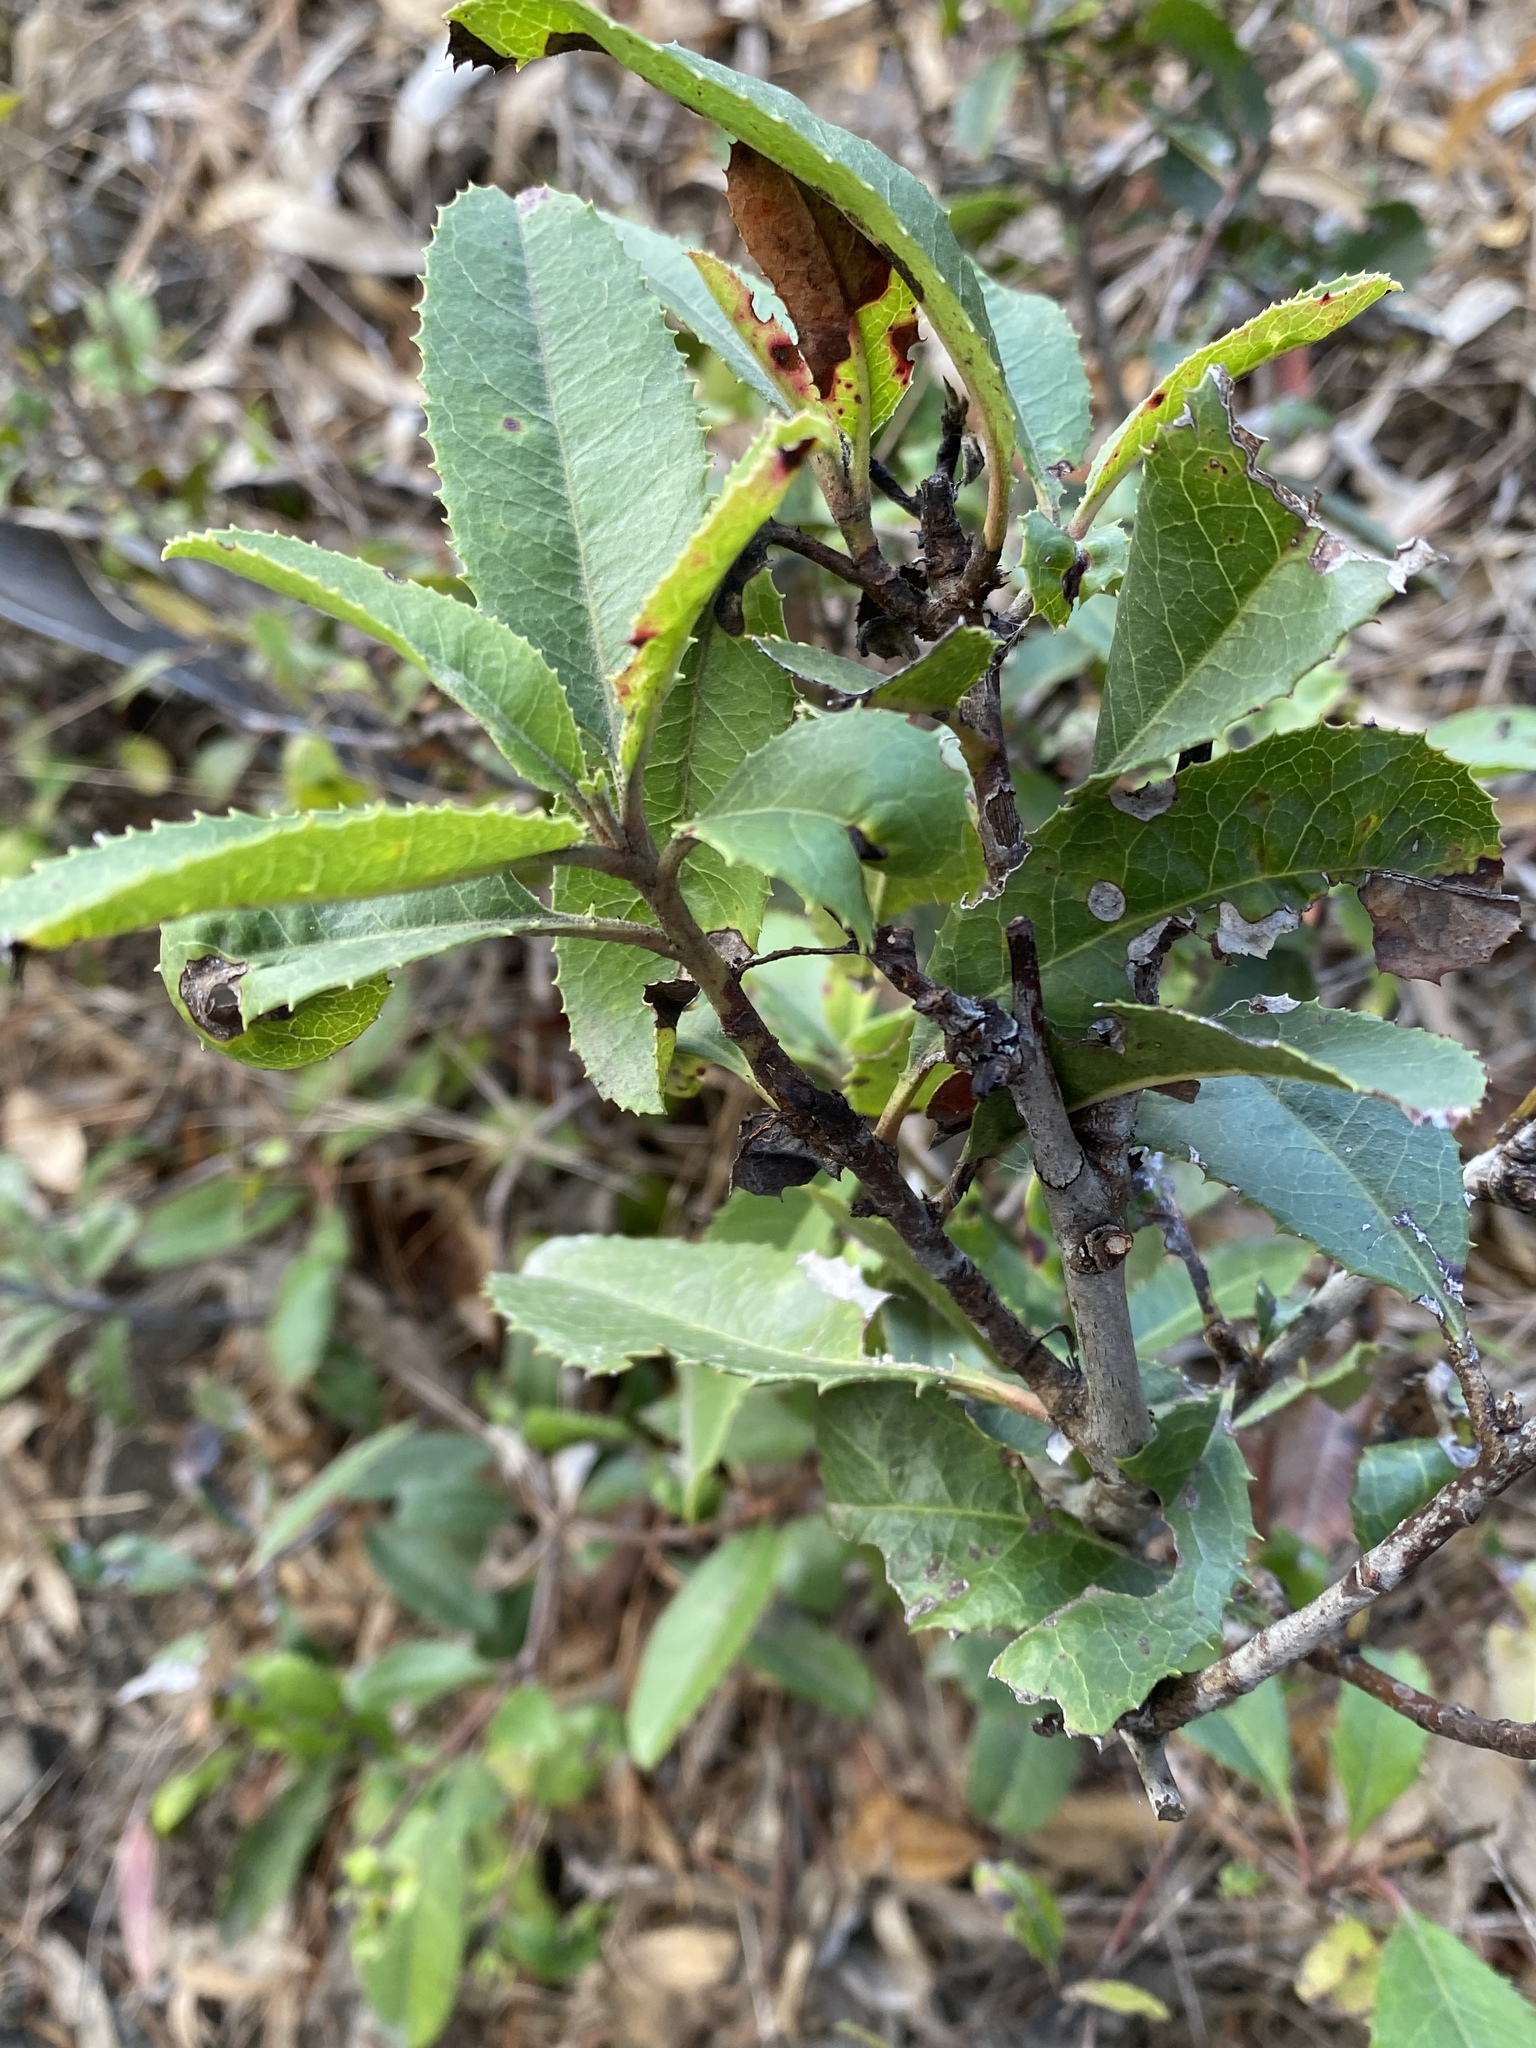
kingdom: Plantae
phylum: Tracheophyta
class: Magnoliopsida
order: Rosales
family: Rosaceae
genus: Heteromeles
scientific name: Heteromeles arbutifolia
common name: California-holly
